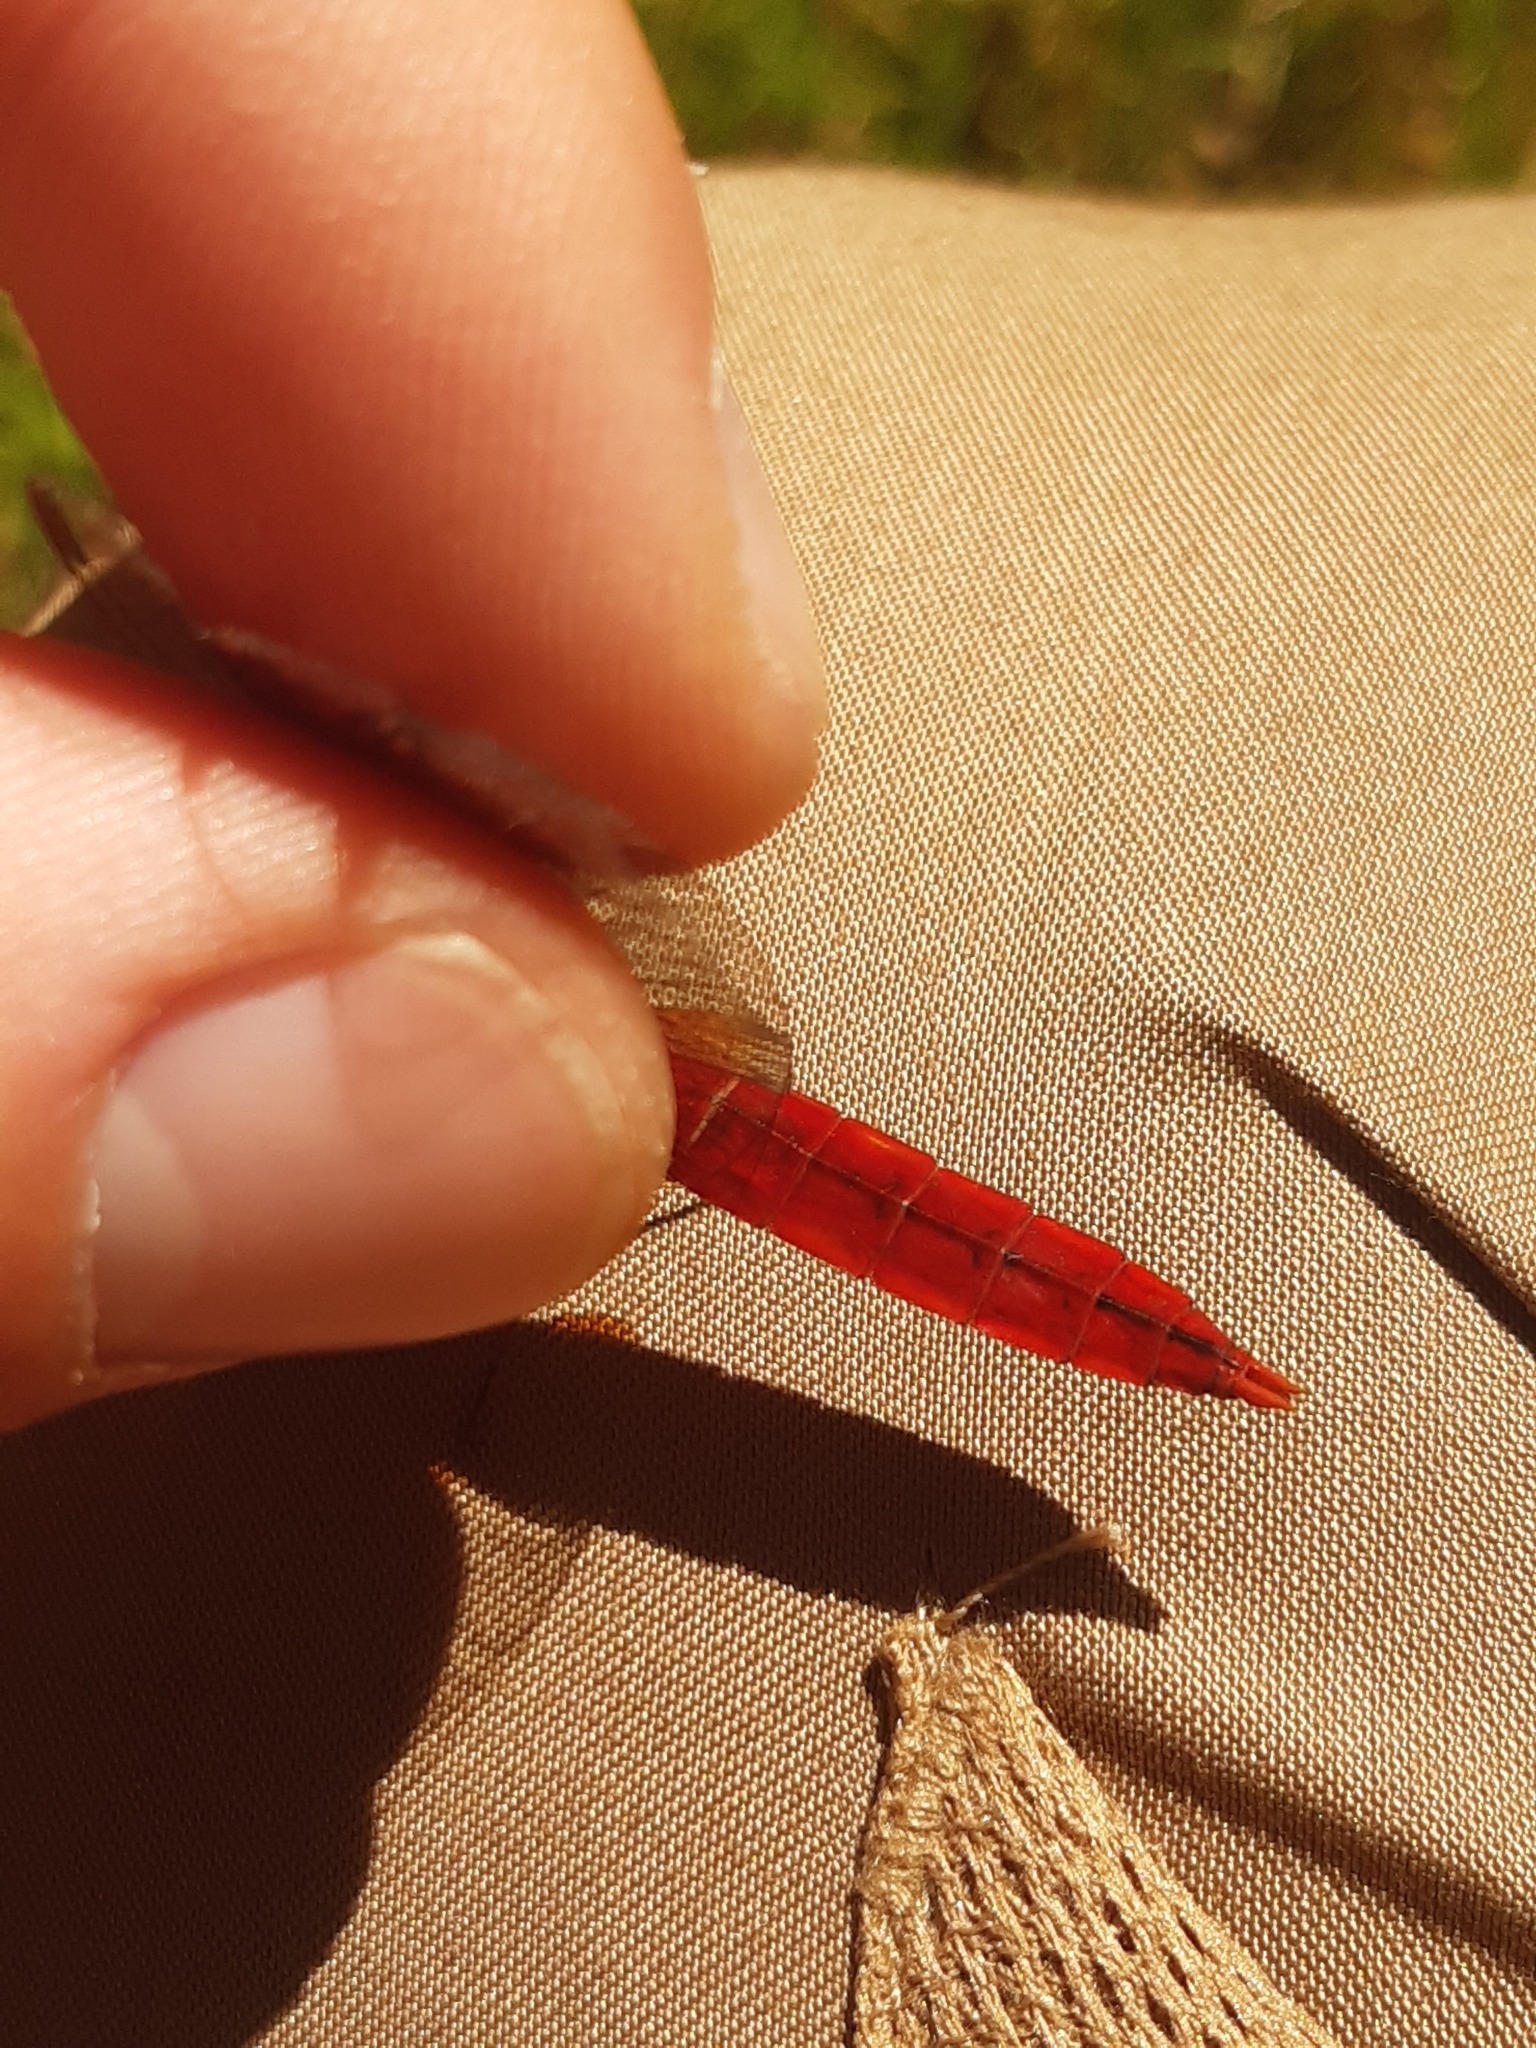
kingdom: Animalia
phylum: Arthropoda
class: Insecta
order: Odonata
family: Libellulidae
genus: Crocothemis
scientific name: Crocothemis erythraea
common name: Scarlet dragonfly
